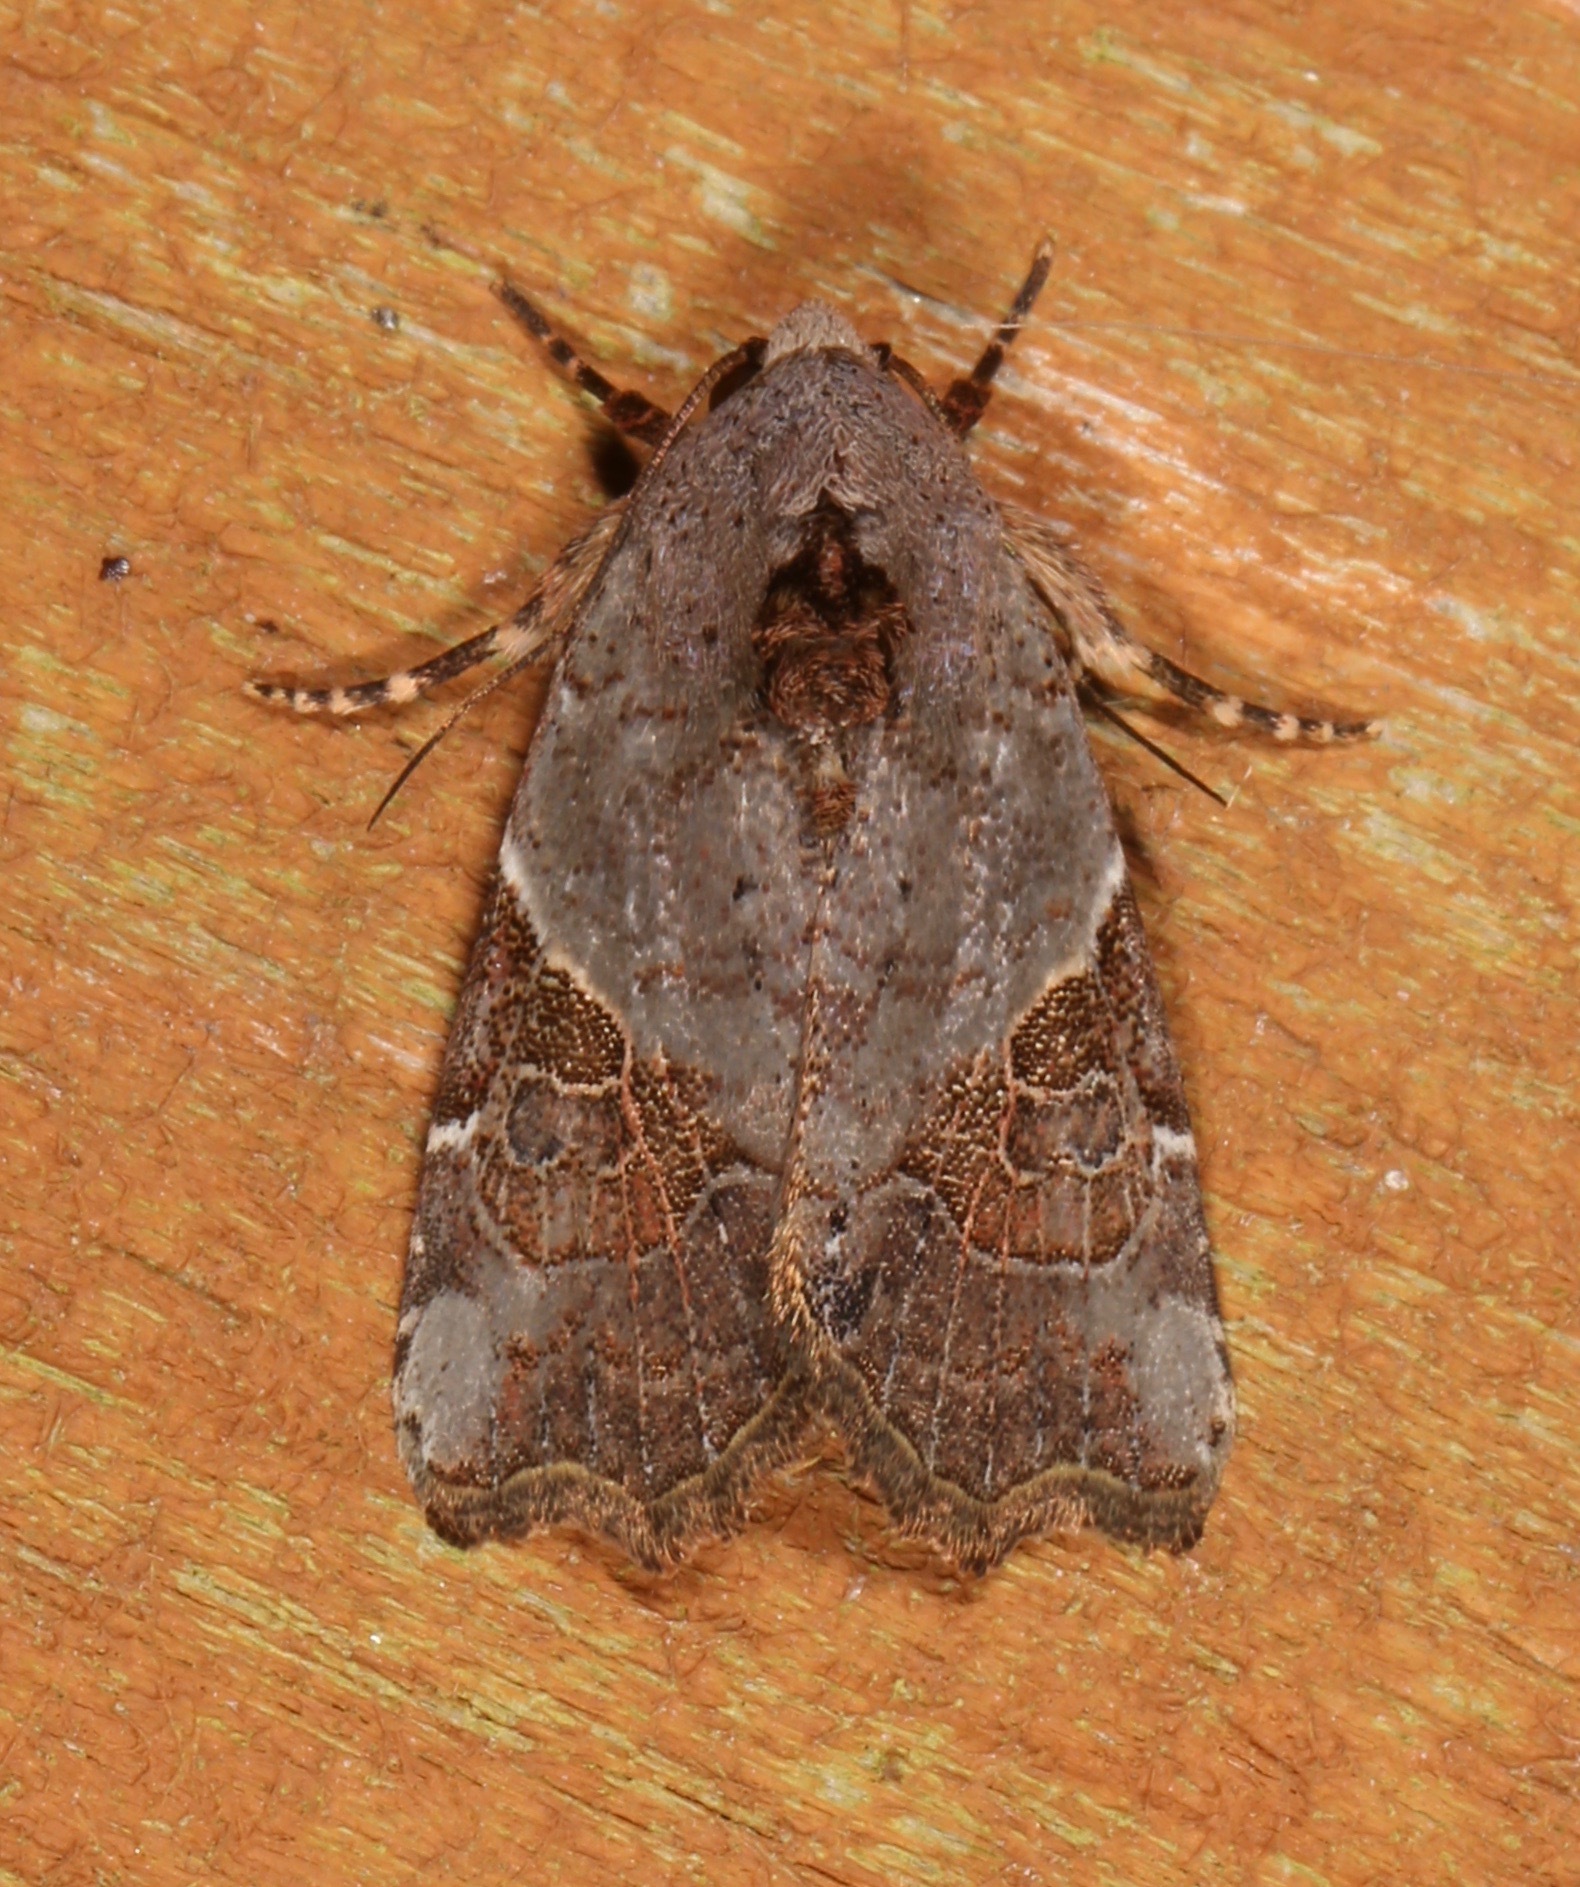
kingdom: Animalia
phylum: Arthropoda
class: Insecta
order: Lepidoptera
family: Noctuidae
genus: Gonodes
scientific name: Gonodes liquida
